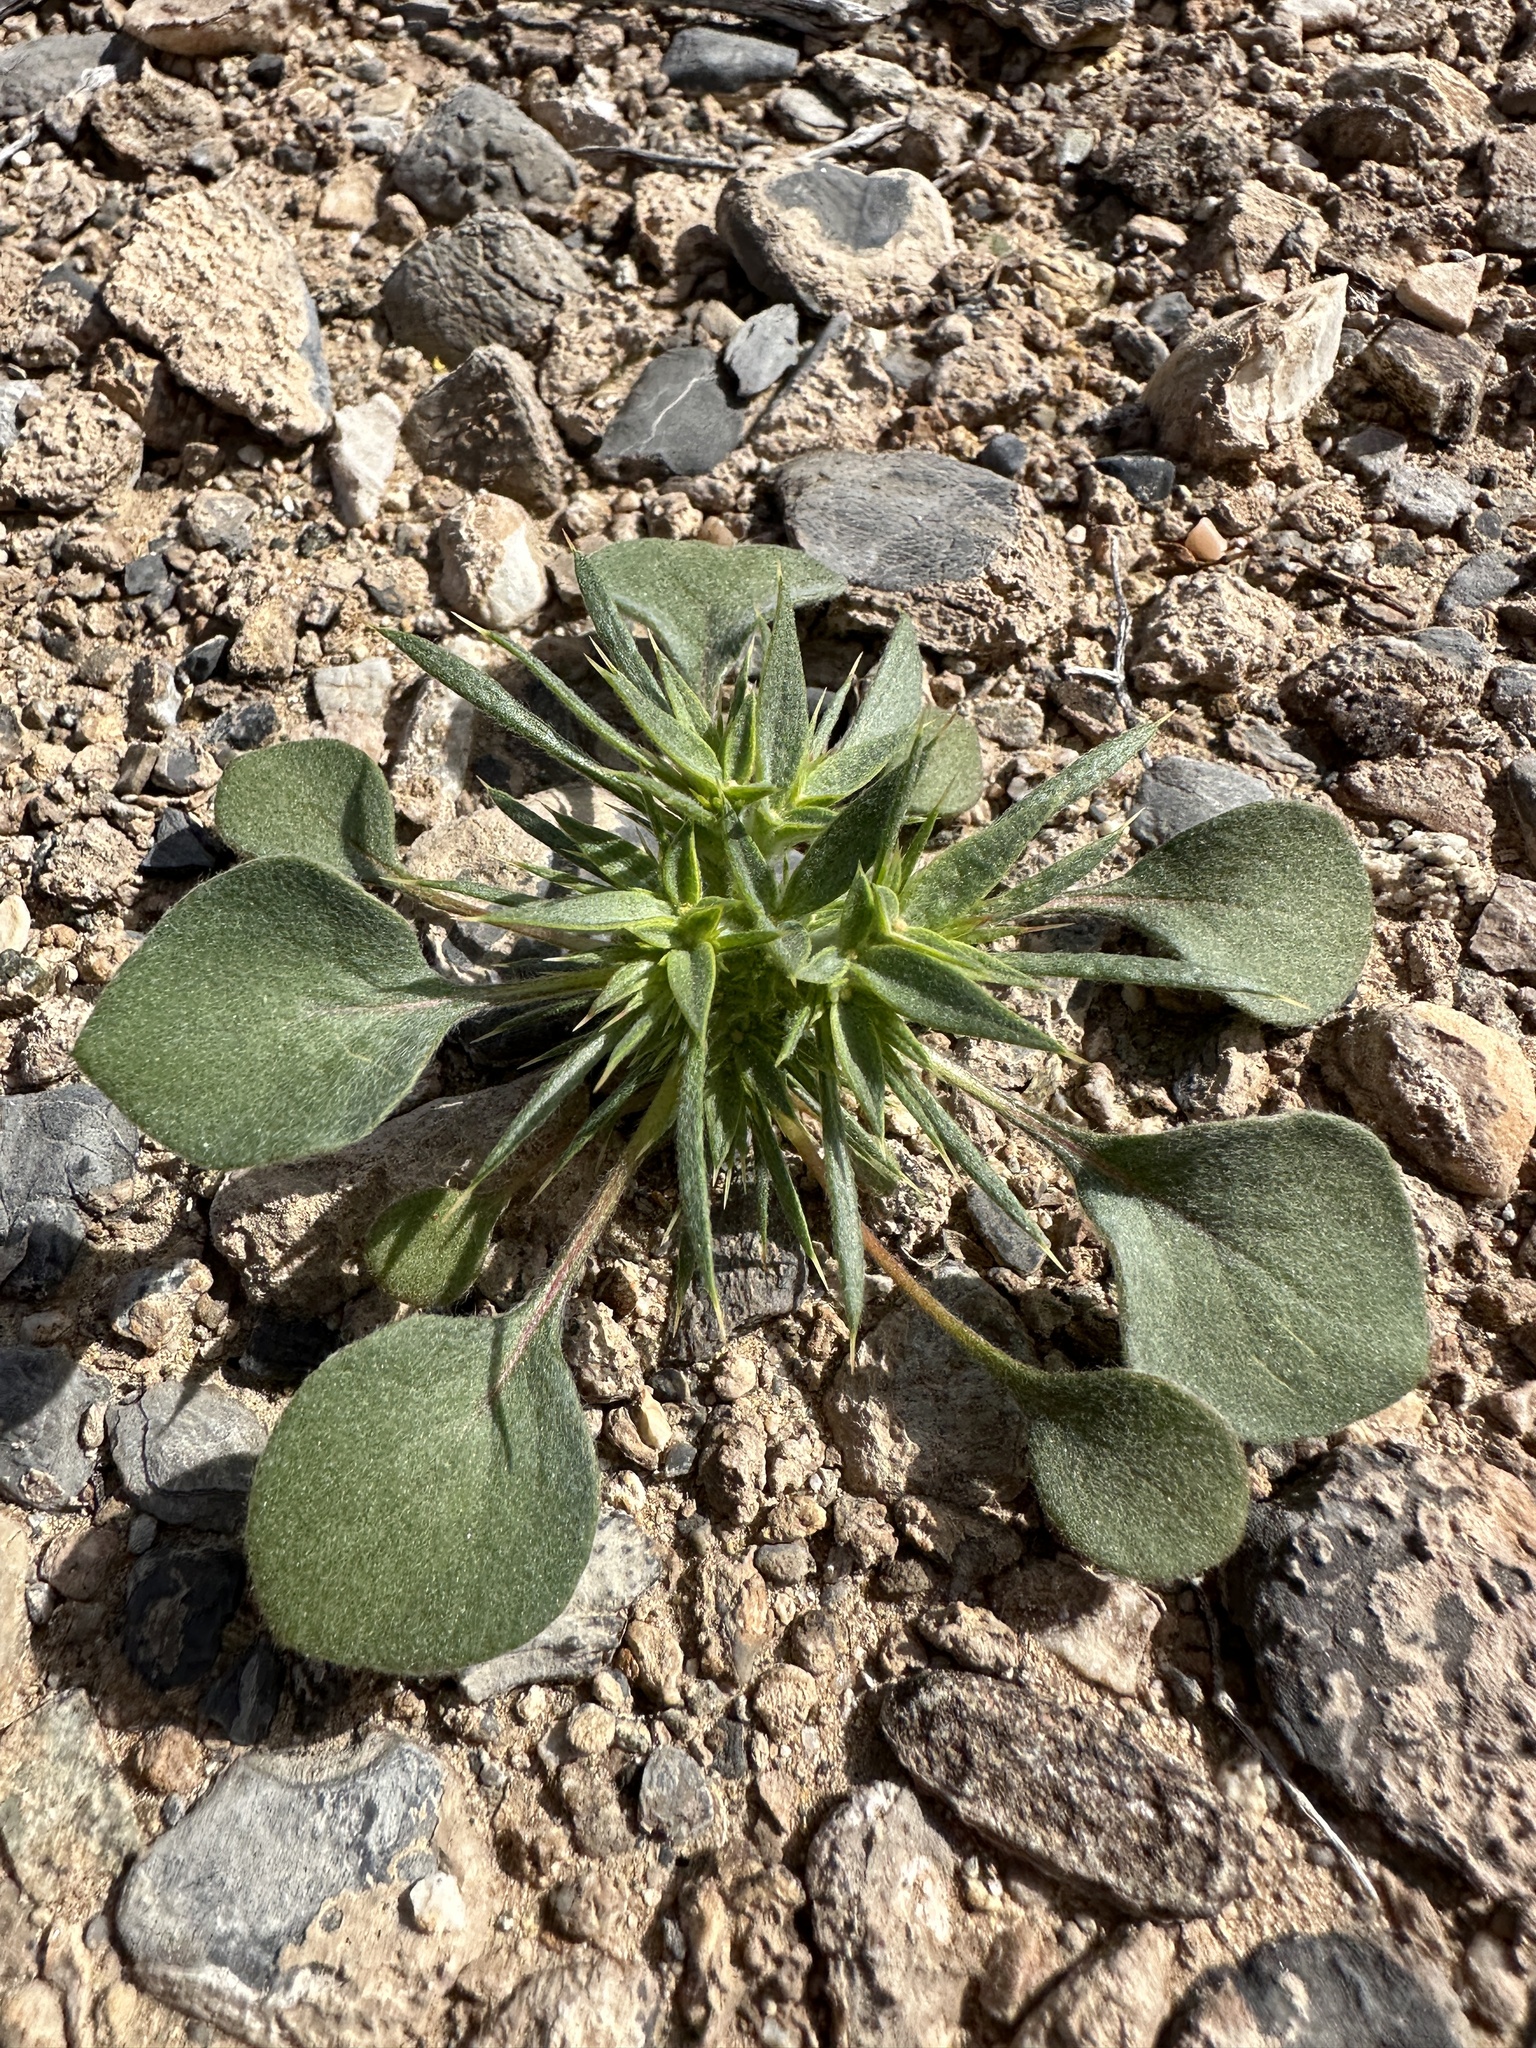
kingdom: Plantae
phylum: Tracheophyta
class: Magnoliopsida
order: Caryophyllales
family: Polygonaceae
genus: Chorizanthe
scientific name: Chorizanthe rigida
